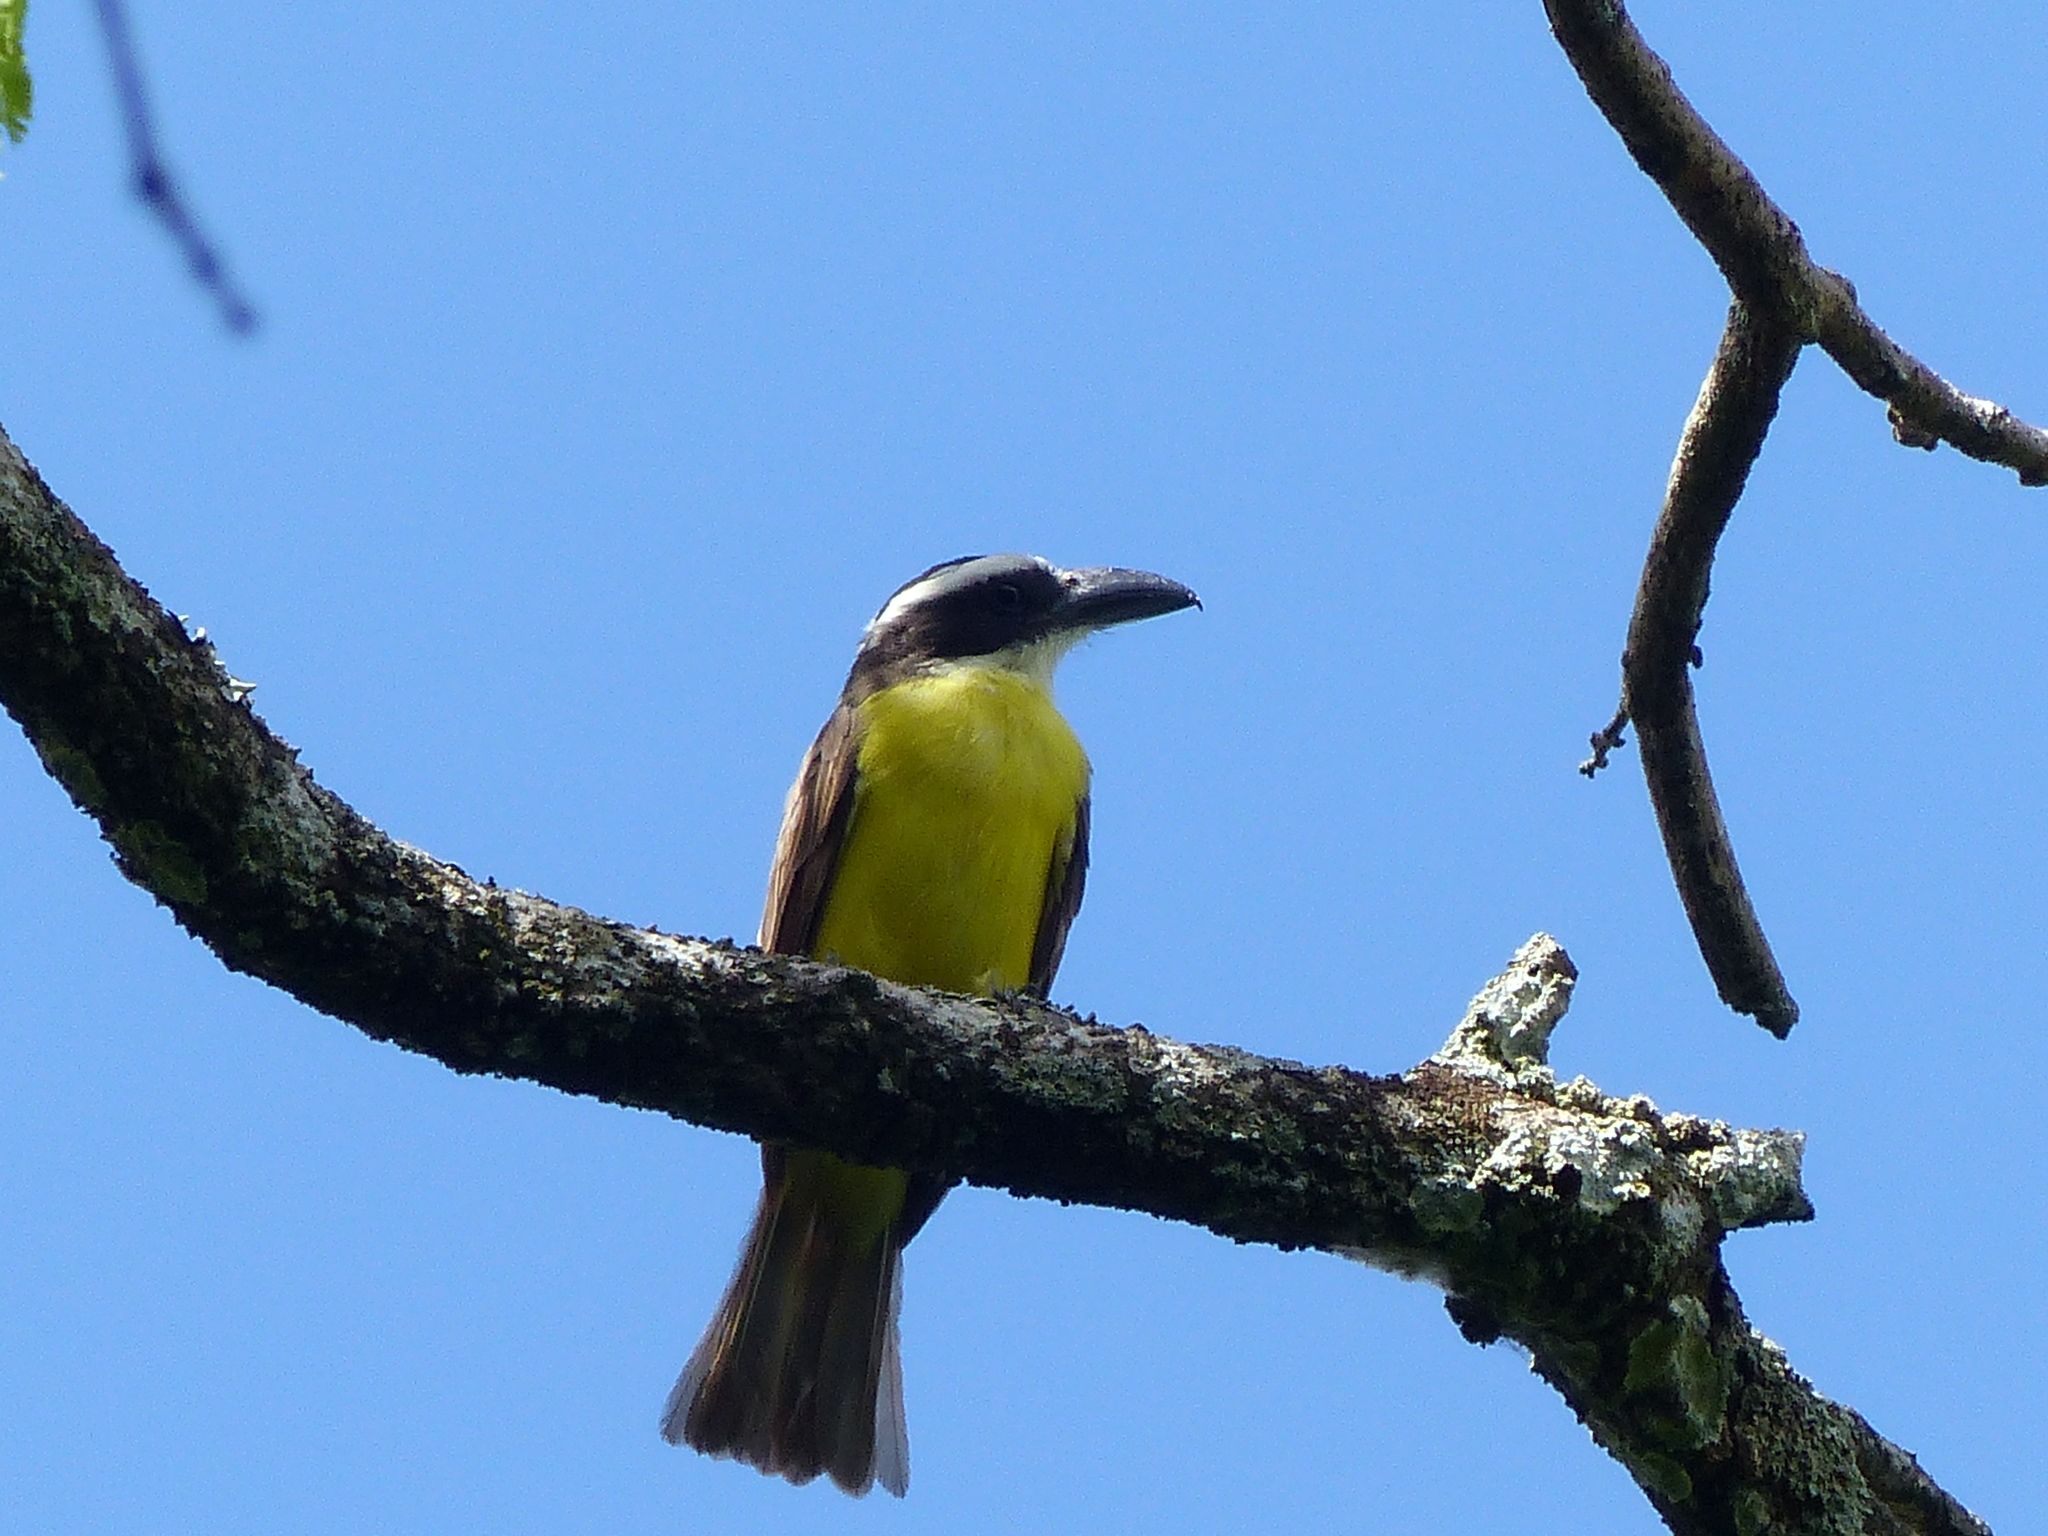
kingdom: Animalia
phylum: Chordata
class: Aves
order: Passeriformes
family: Tyrannidae
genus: Megarynchus
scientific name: Megarynchus pitangua
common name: Boat-billed flycatcher
